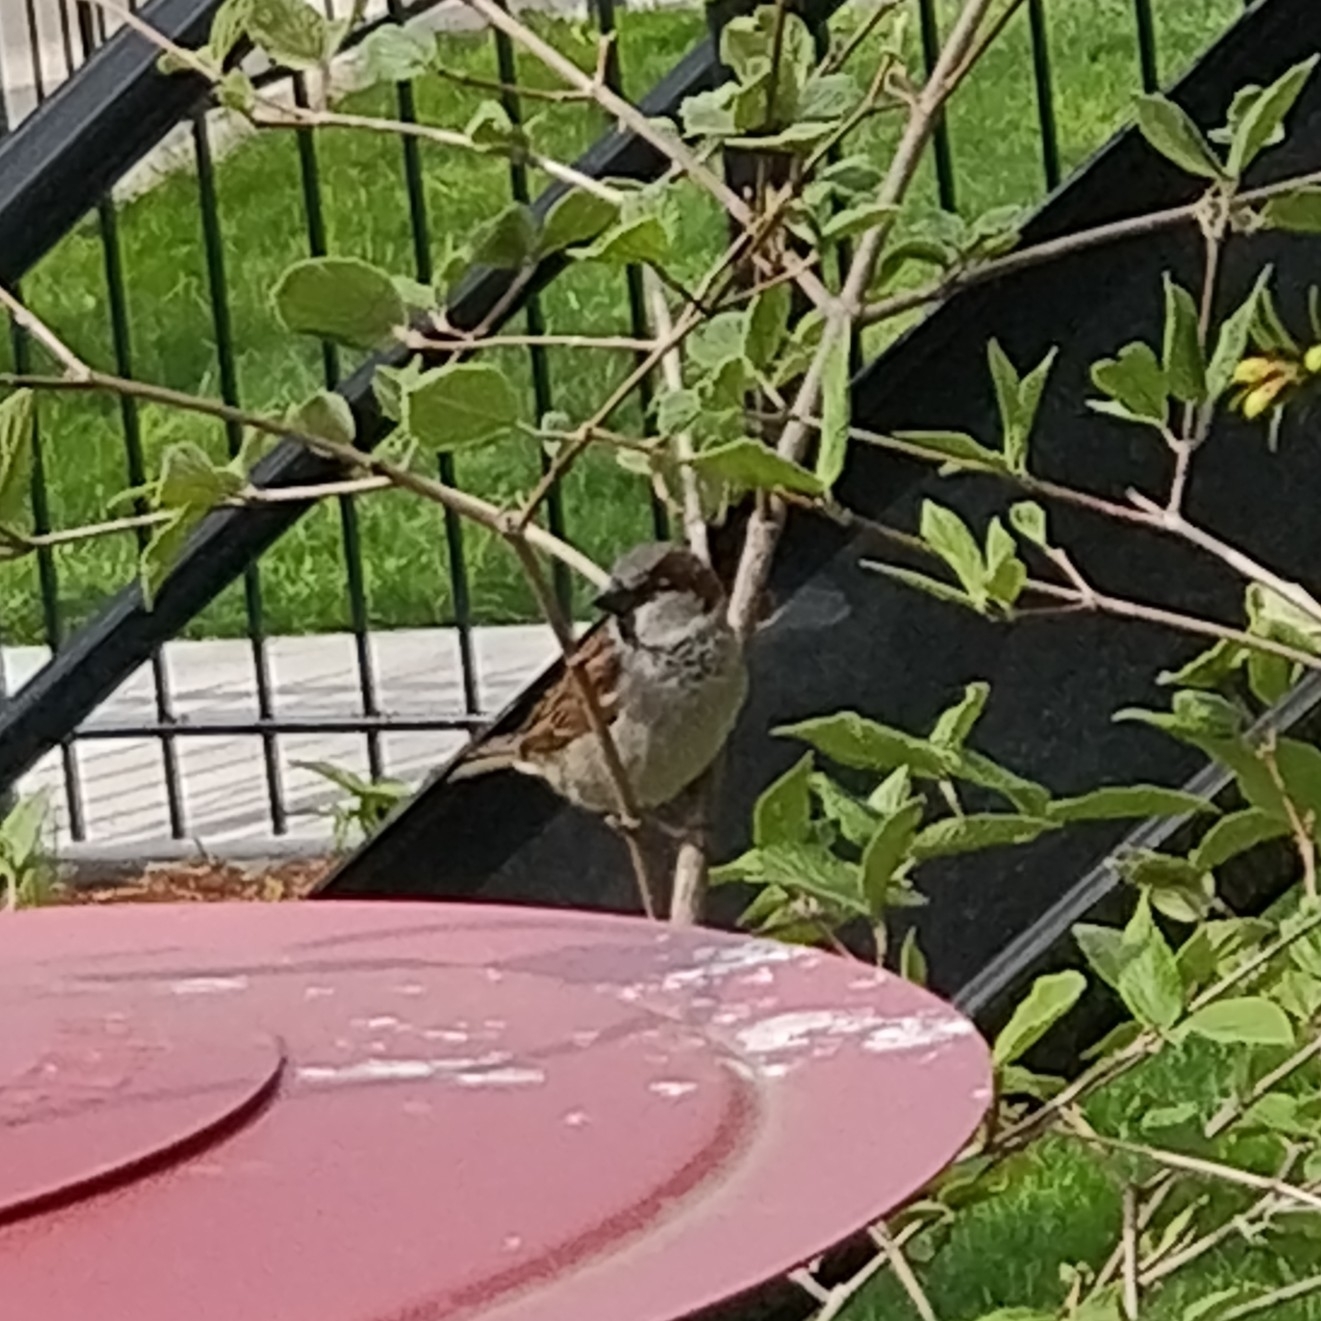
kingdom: Animalia
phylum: Chordata
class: Aves
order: Passeriformes
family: Passeridae
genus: Passer
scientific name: Passer domesticus
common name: House sparrow
